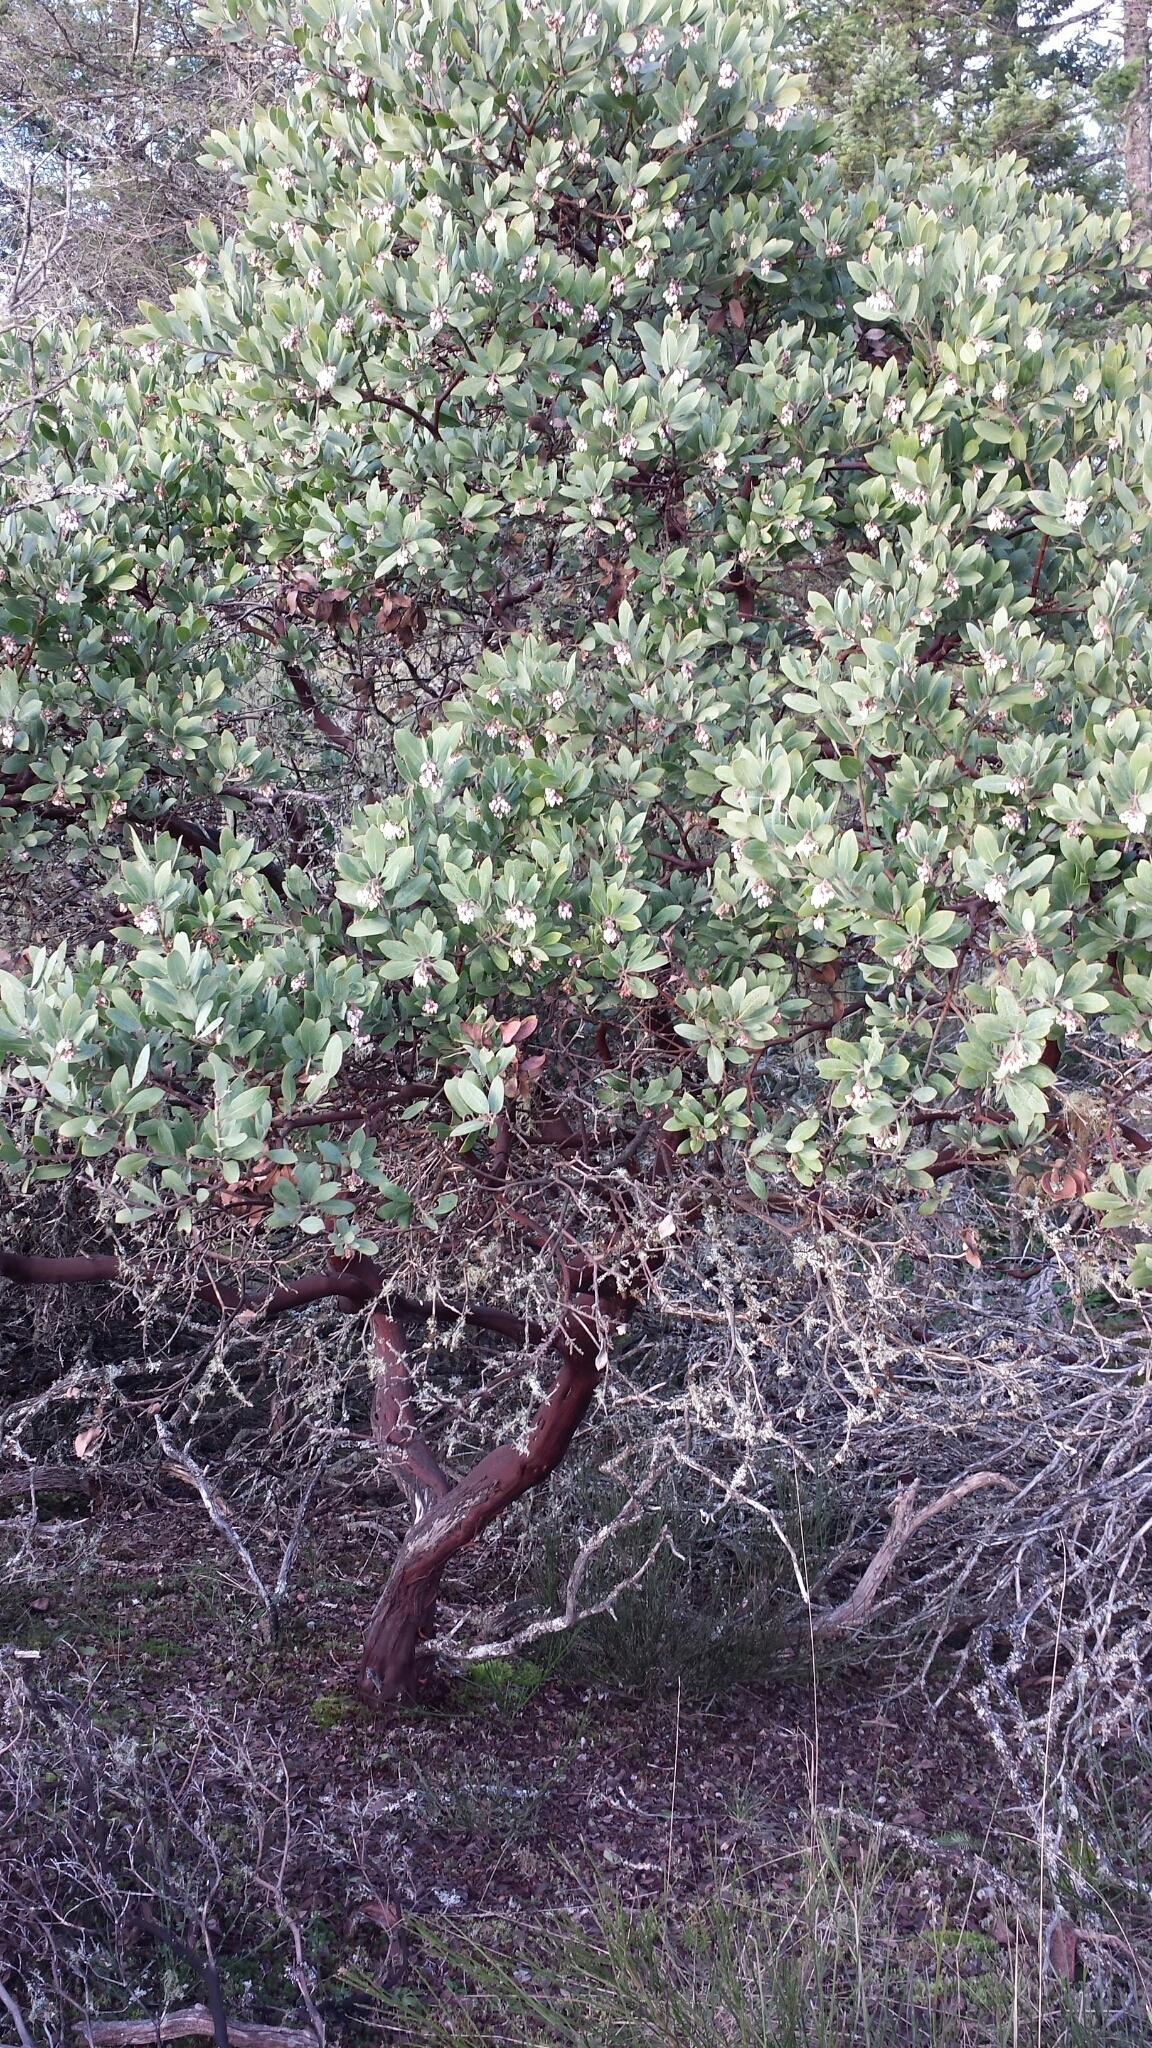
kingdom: Plantae
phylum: Tracheophyta
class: Magnoliopsida
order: Ericales
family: Ericaceae
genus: Arctostaphylos
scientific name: Arctostaphylos columbiana
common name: Bristly bearberry
